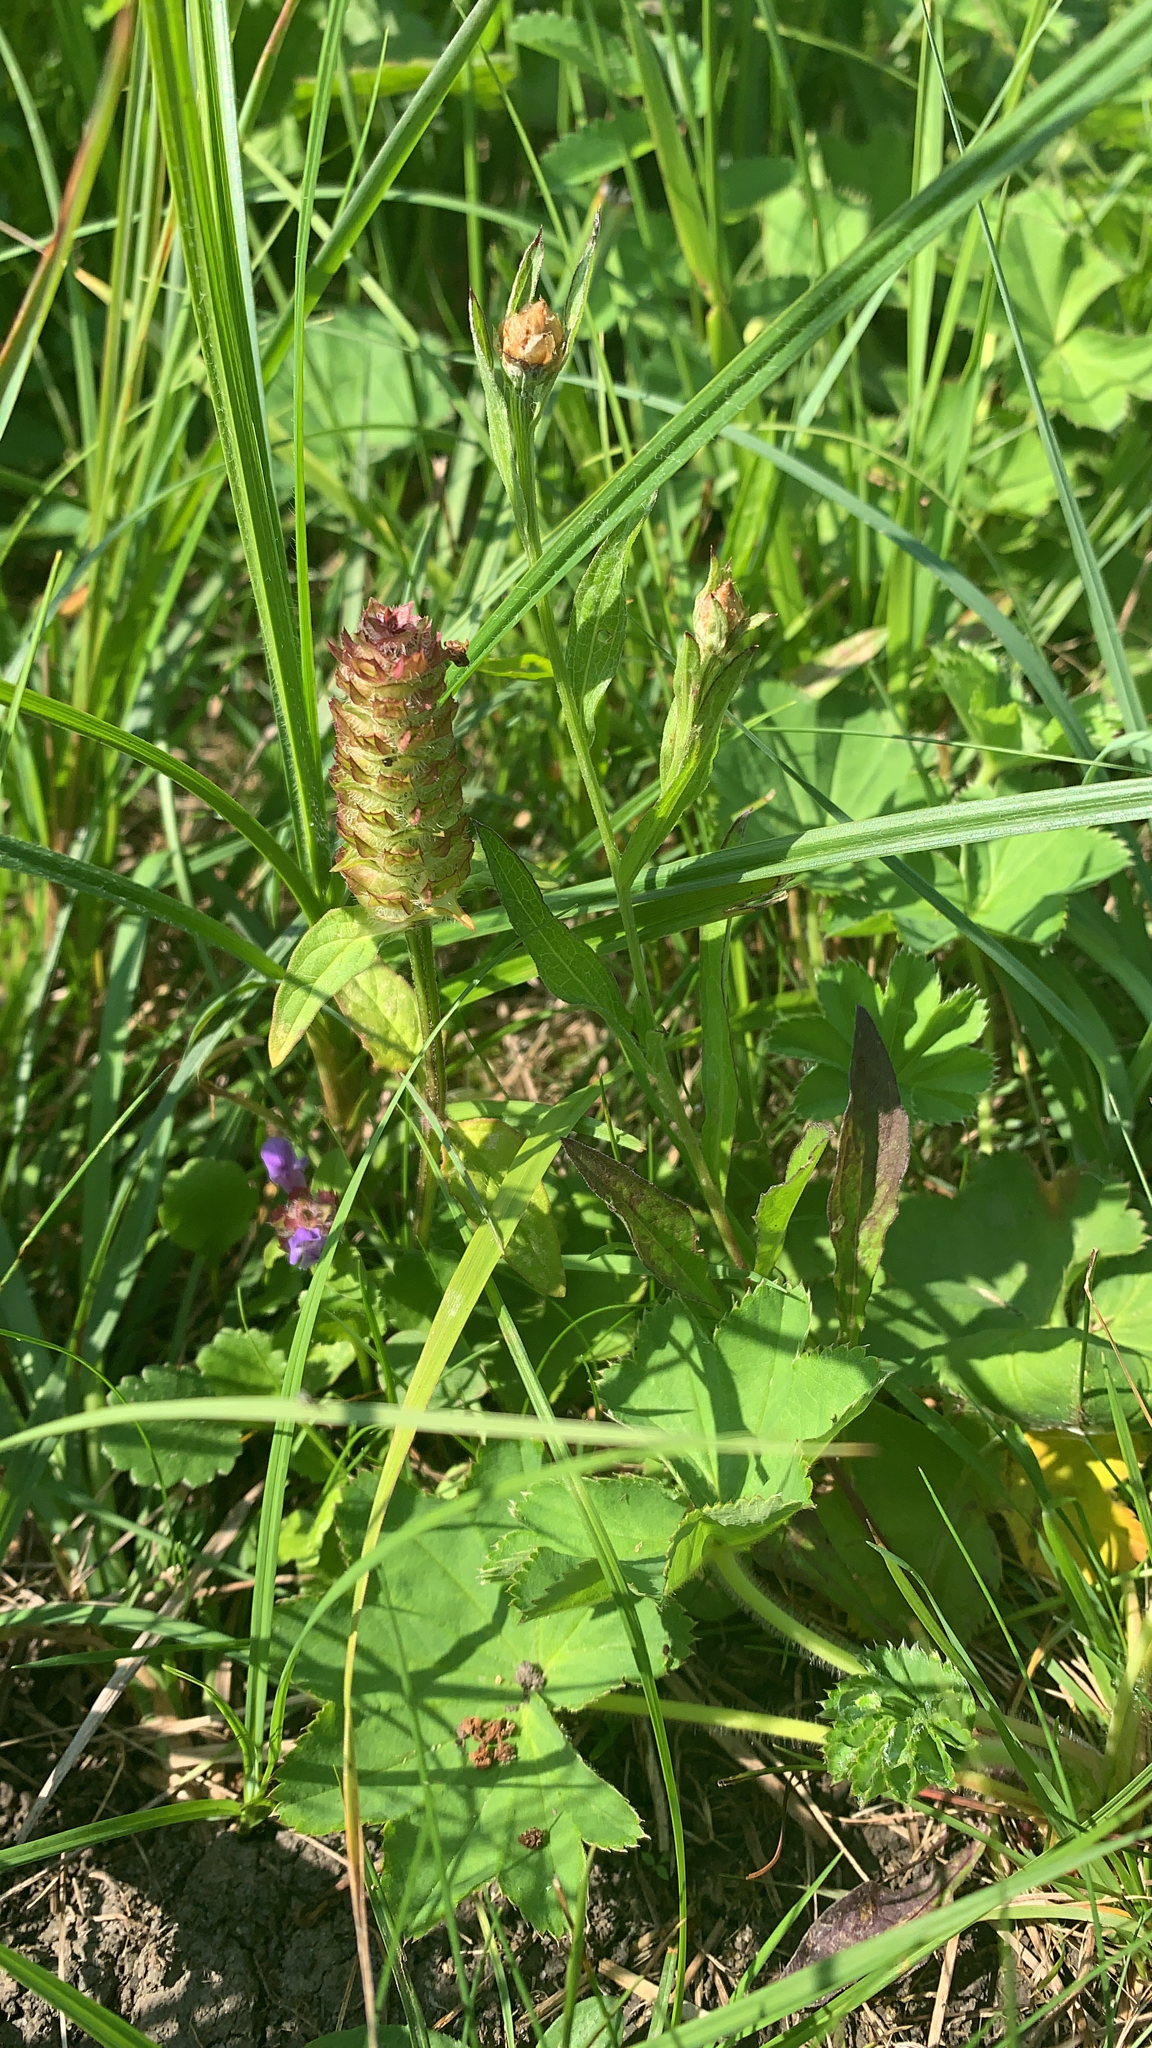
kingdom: Plantae
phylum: Tracheophyta
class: Magnoliopsida
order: Lamiales
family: Lamiaceae
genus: Prunella
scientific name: Prunella vulgaris
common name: Heal-all
